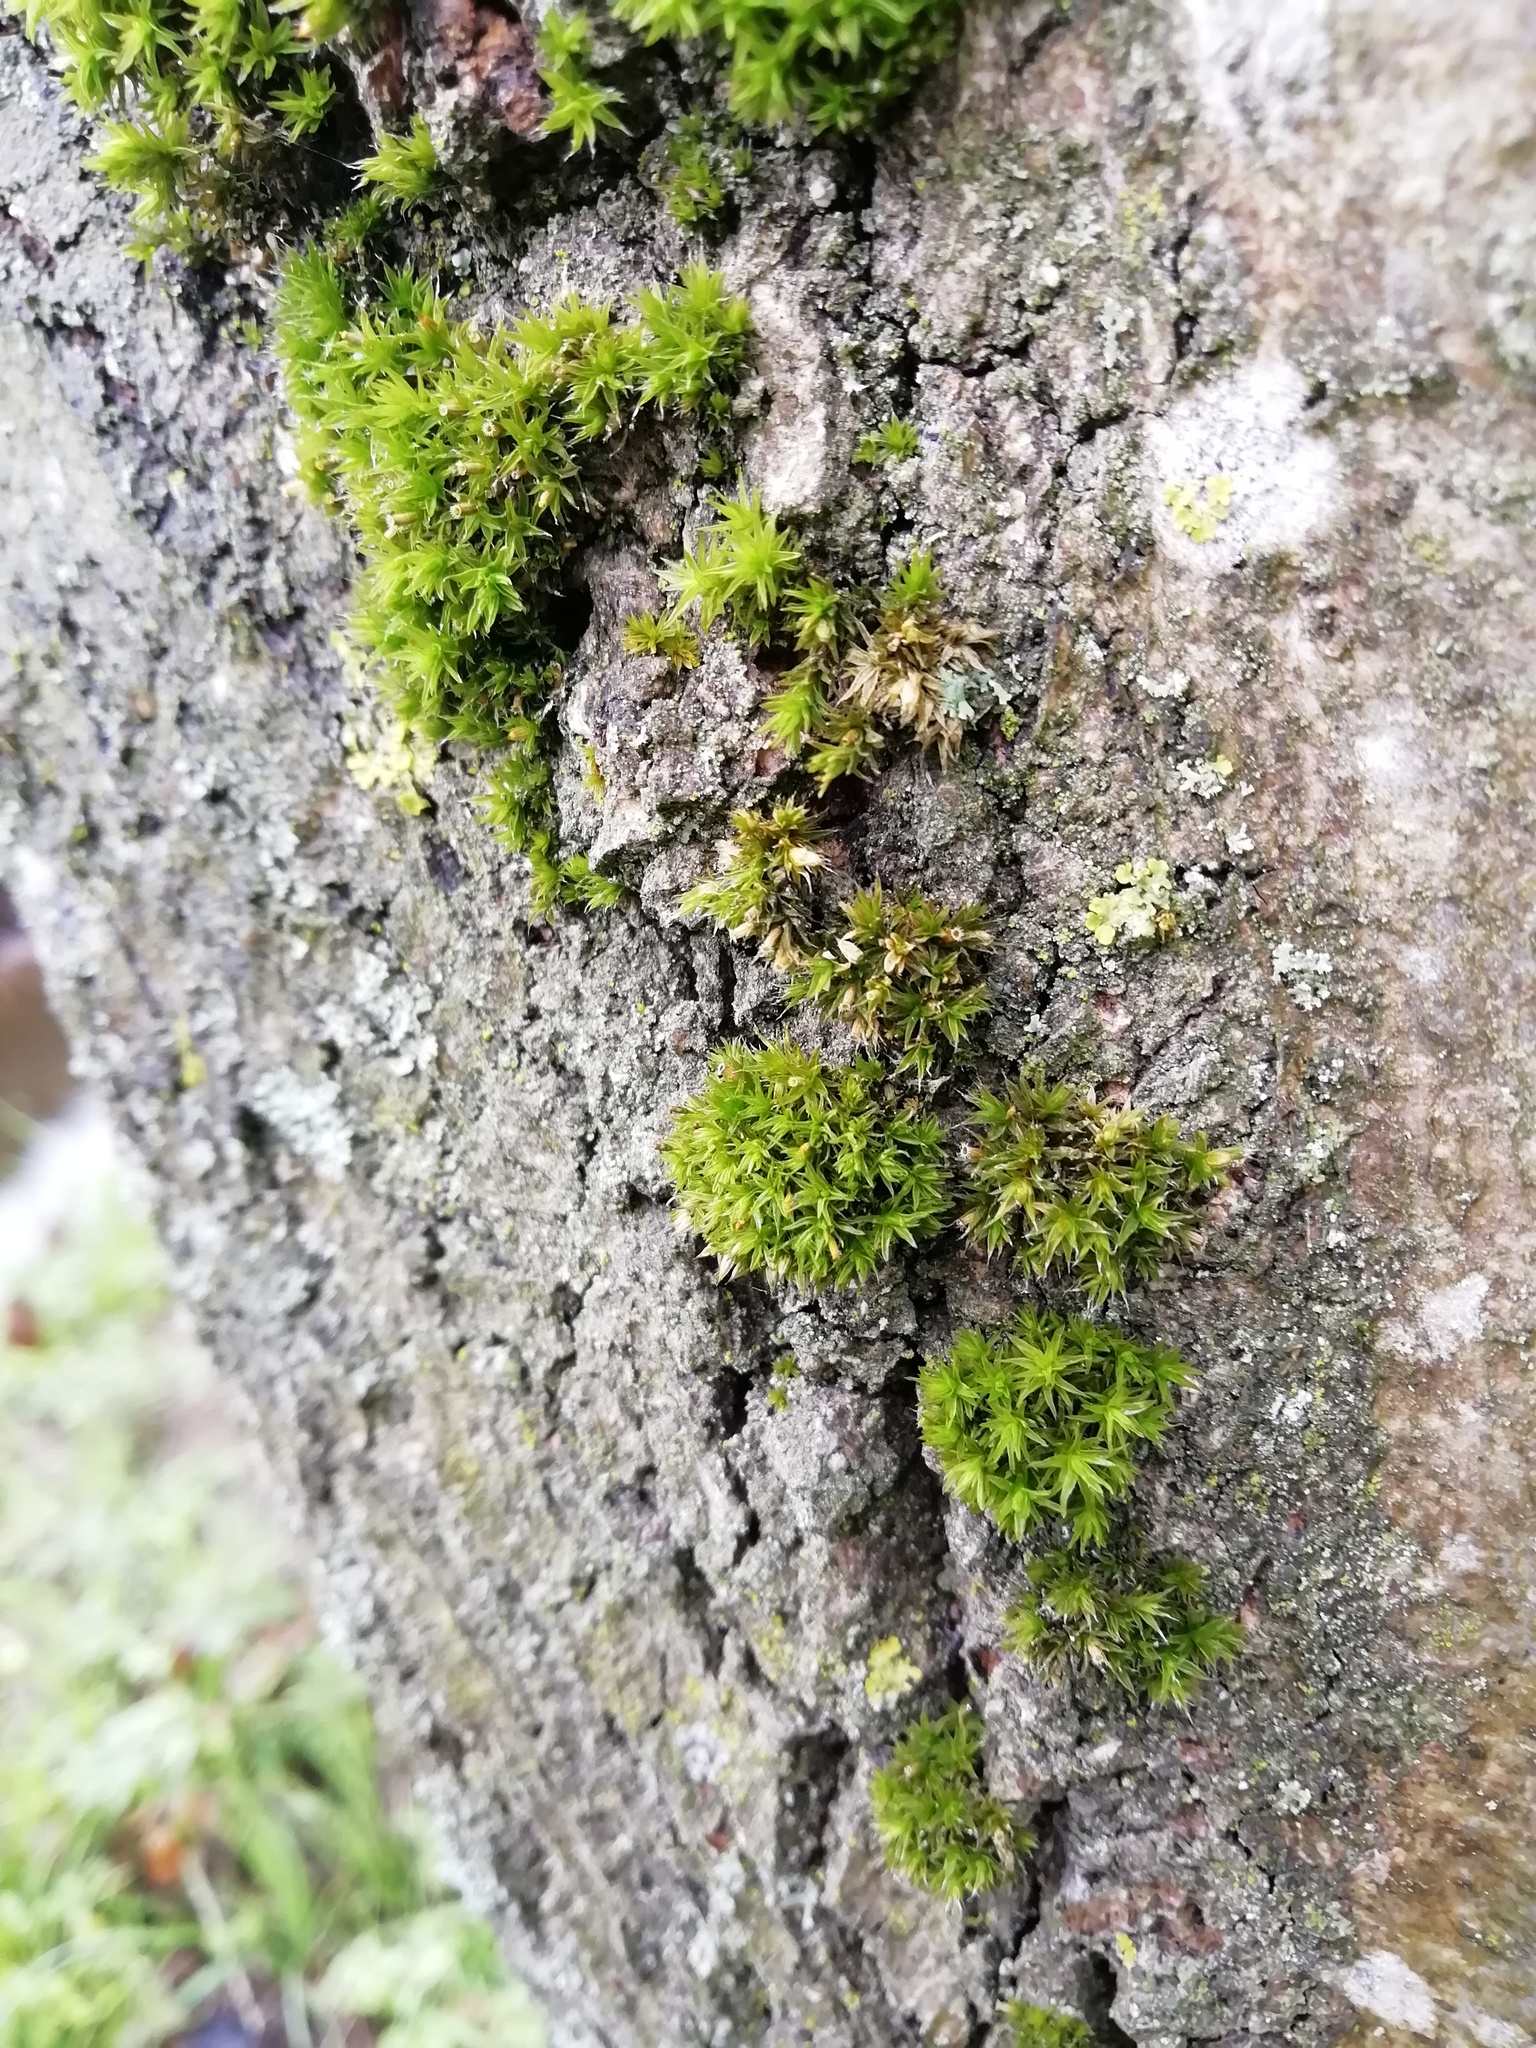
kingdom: Plantae
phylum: Bryophyta
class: Bryopsida
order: Orthotrichales
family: Orthotrichaceae
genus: Orthotrichum
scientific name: Orthotrichum diaphanum
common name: White-tipped bristle-moss
